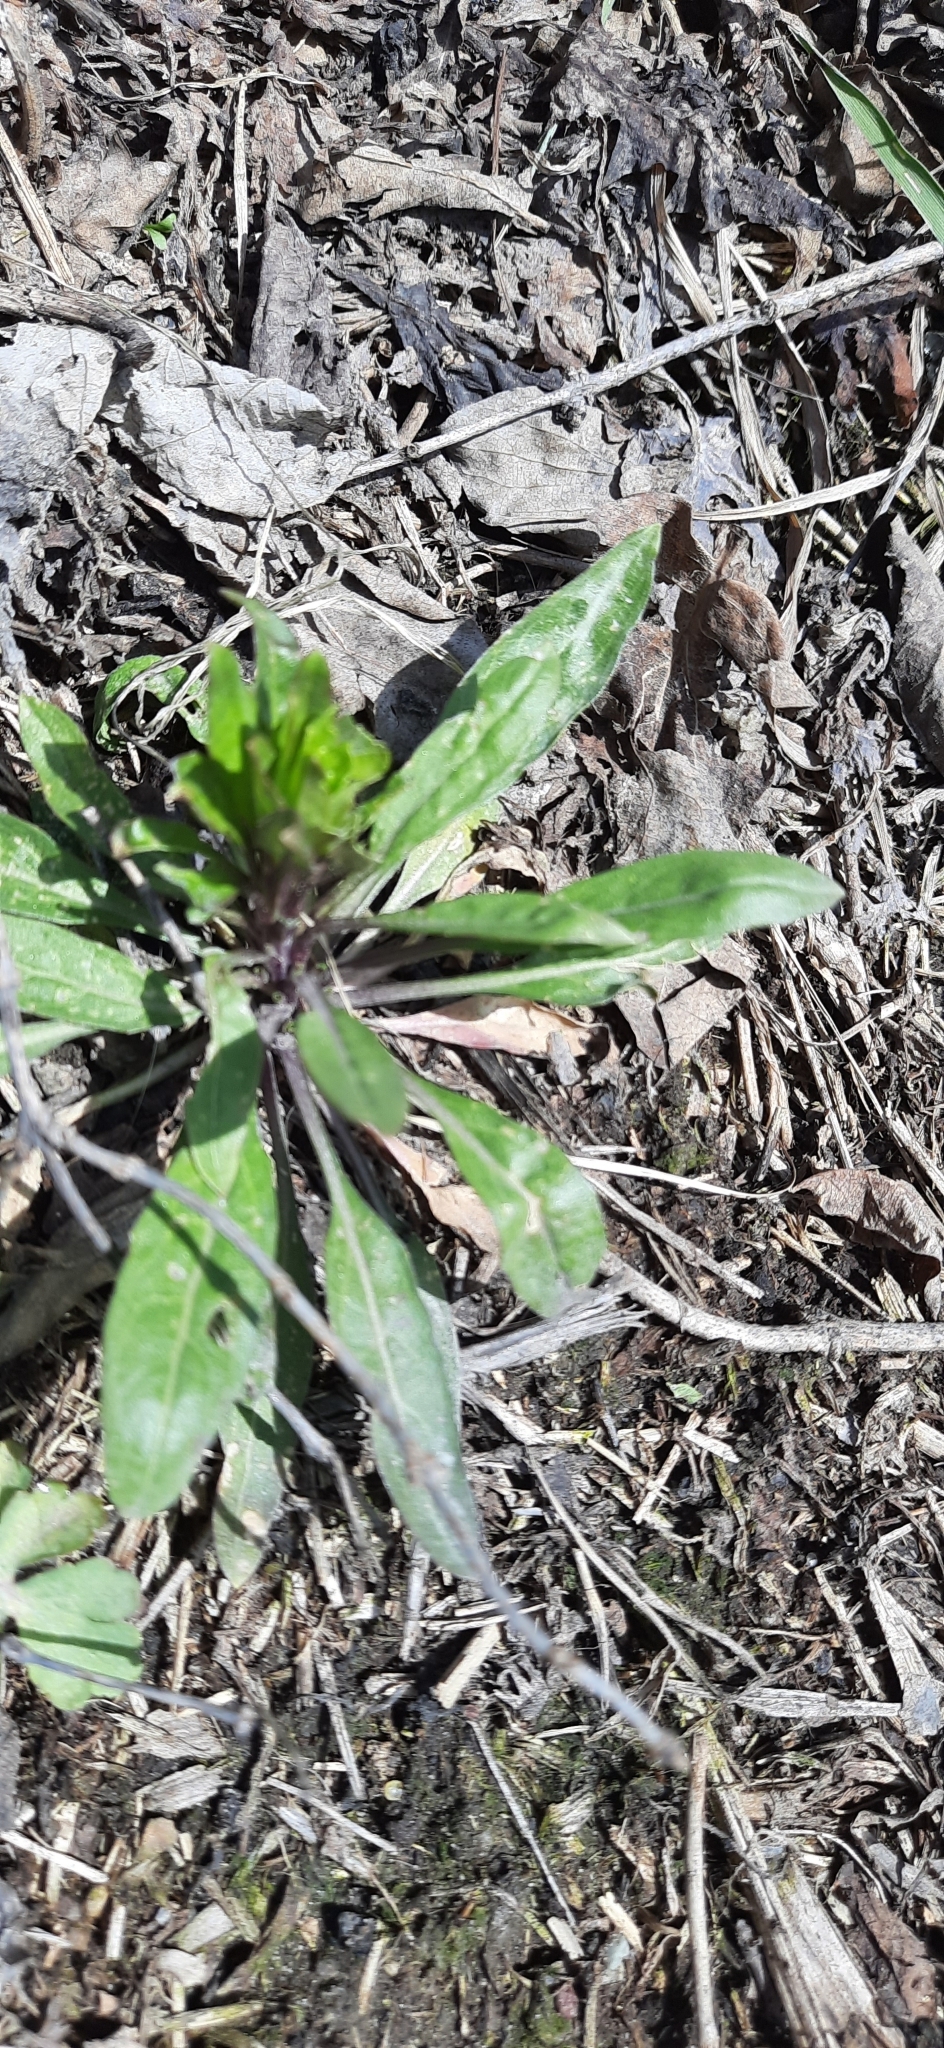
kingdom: Plantae
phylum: Tracheophyta
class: Magnoliopsida
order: Asterales
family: Asteraceae
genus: Omalotheca
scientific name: Omalotheca sylvatica
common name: Heath cudweed
